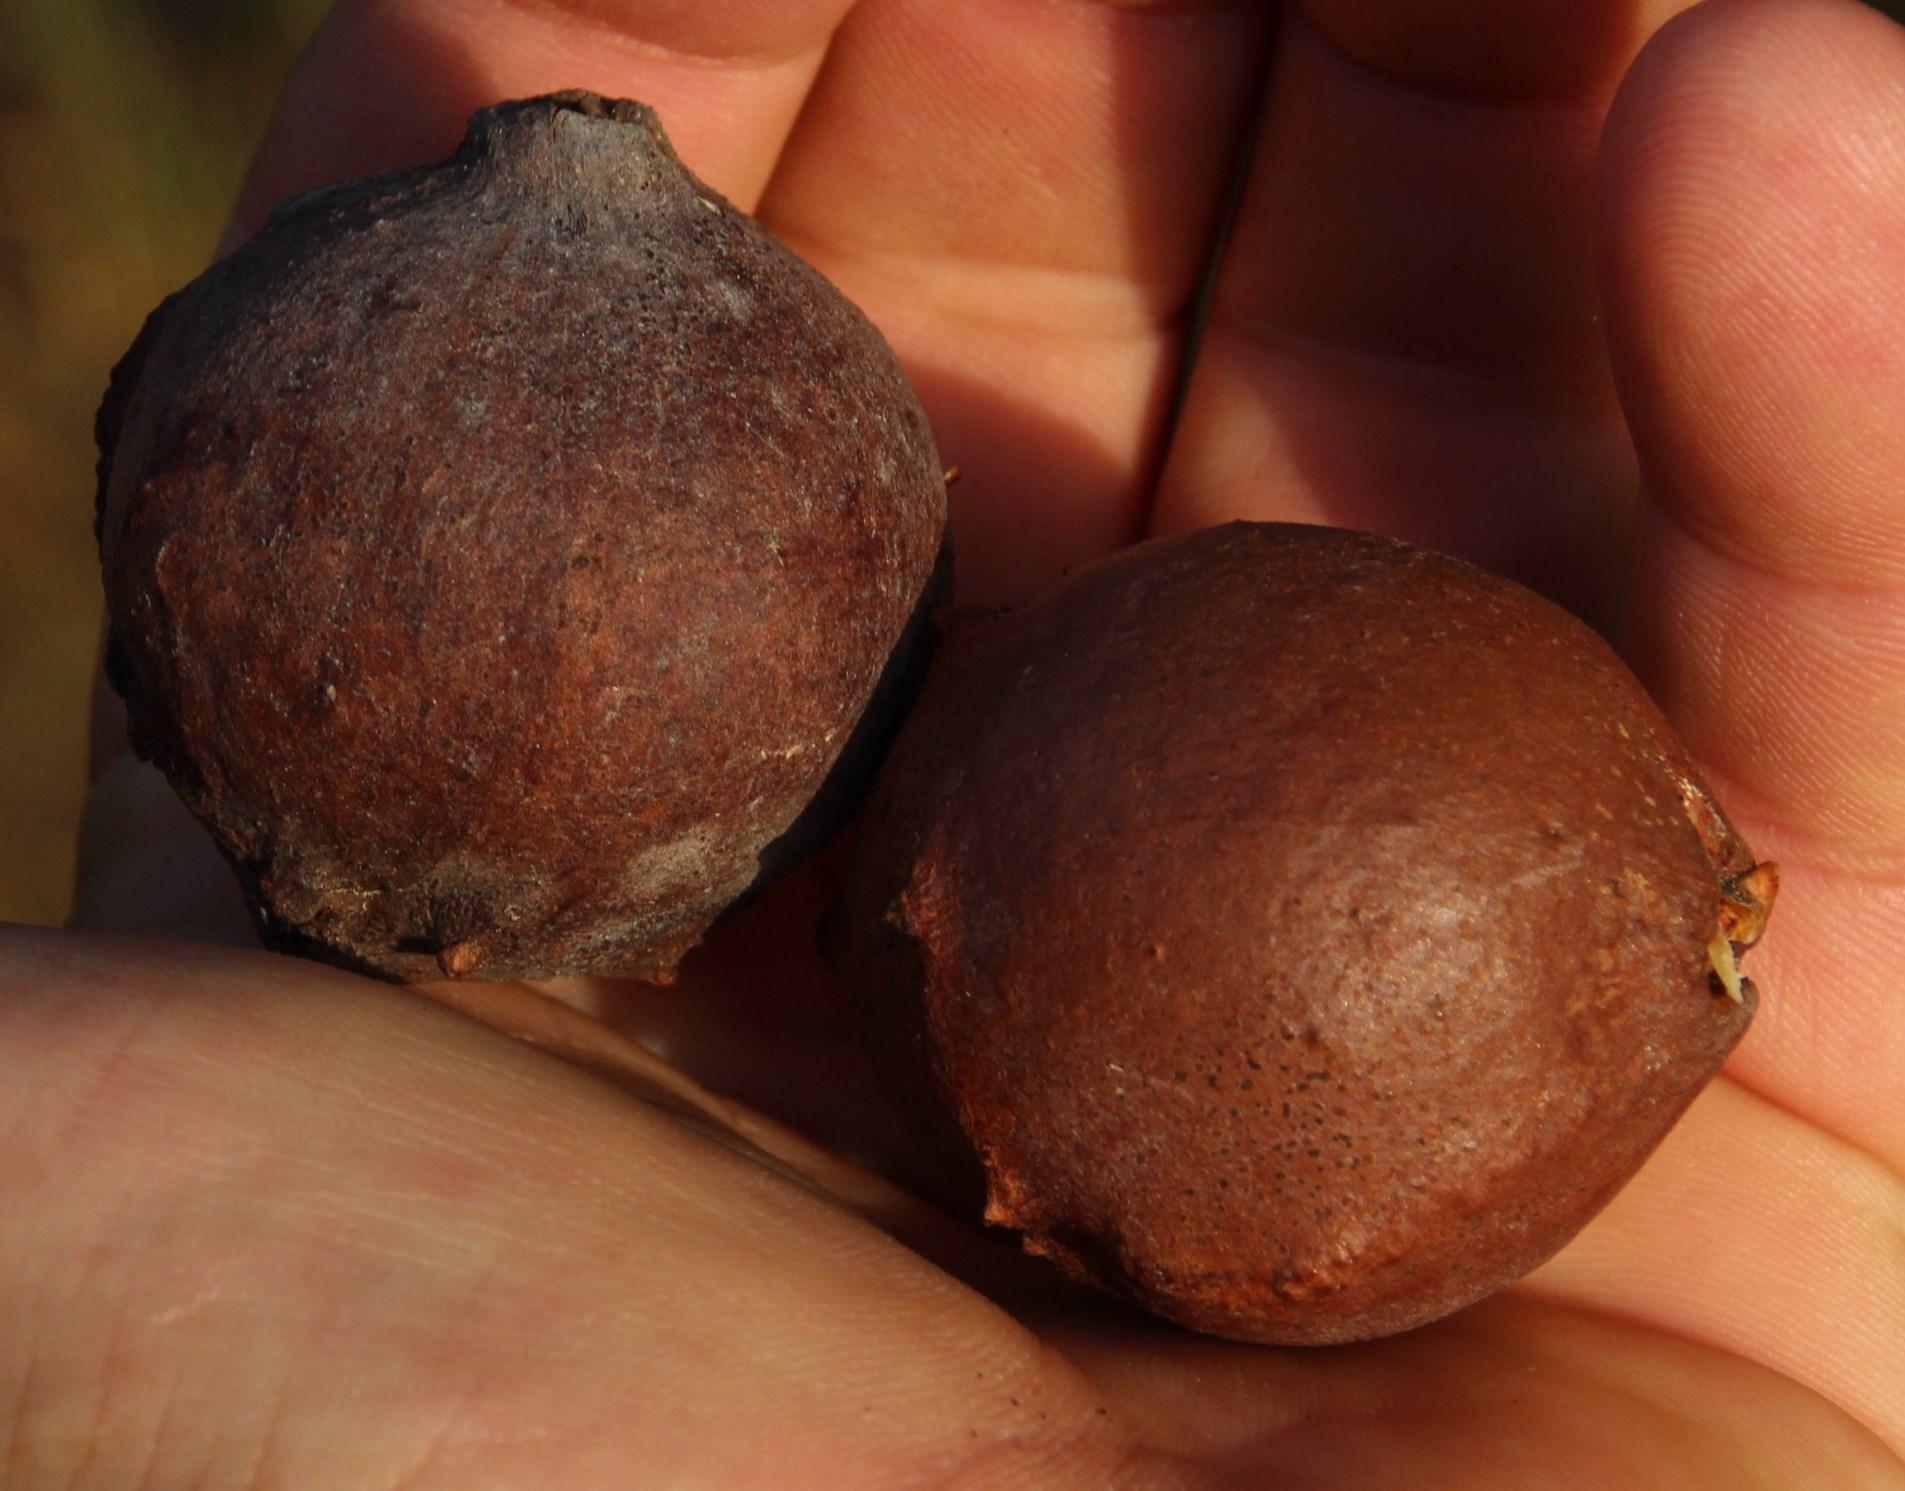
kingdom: Plantae
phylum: Tracheophyta
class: Magnoliopsida
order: Fagales
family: Fagaceae
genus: Quercus
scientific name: Quercus orocantabrica
